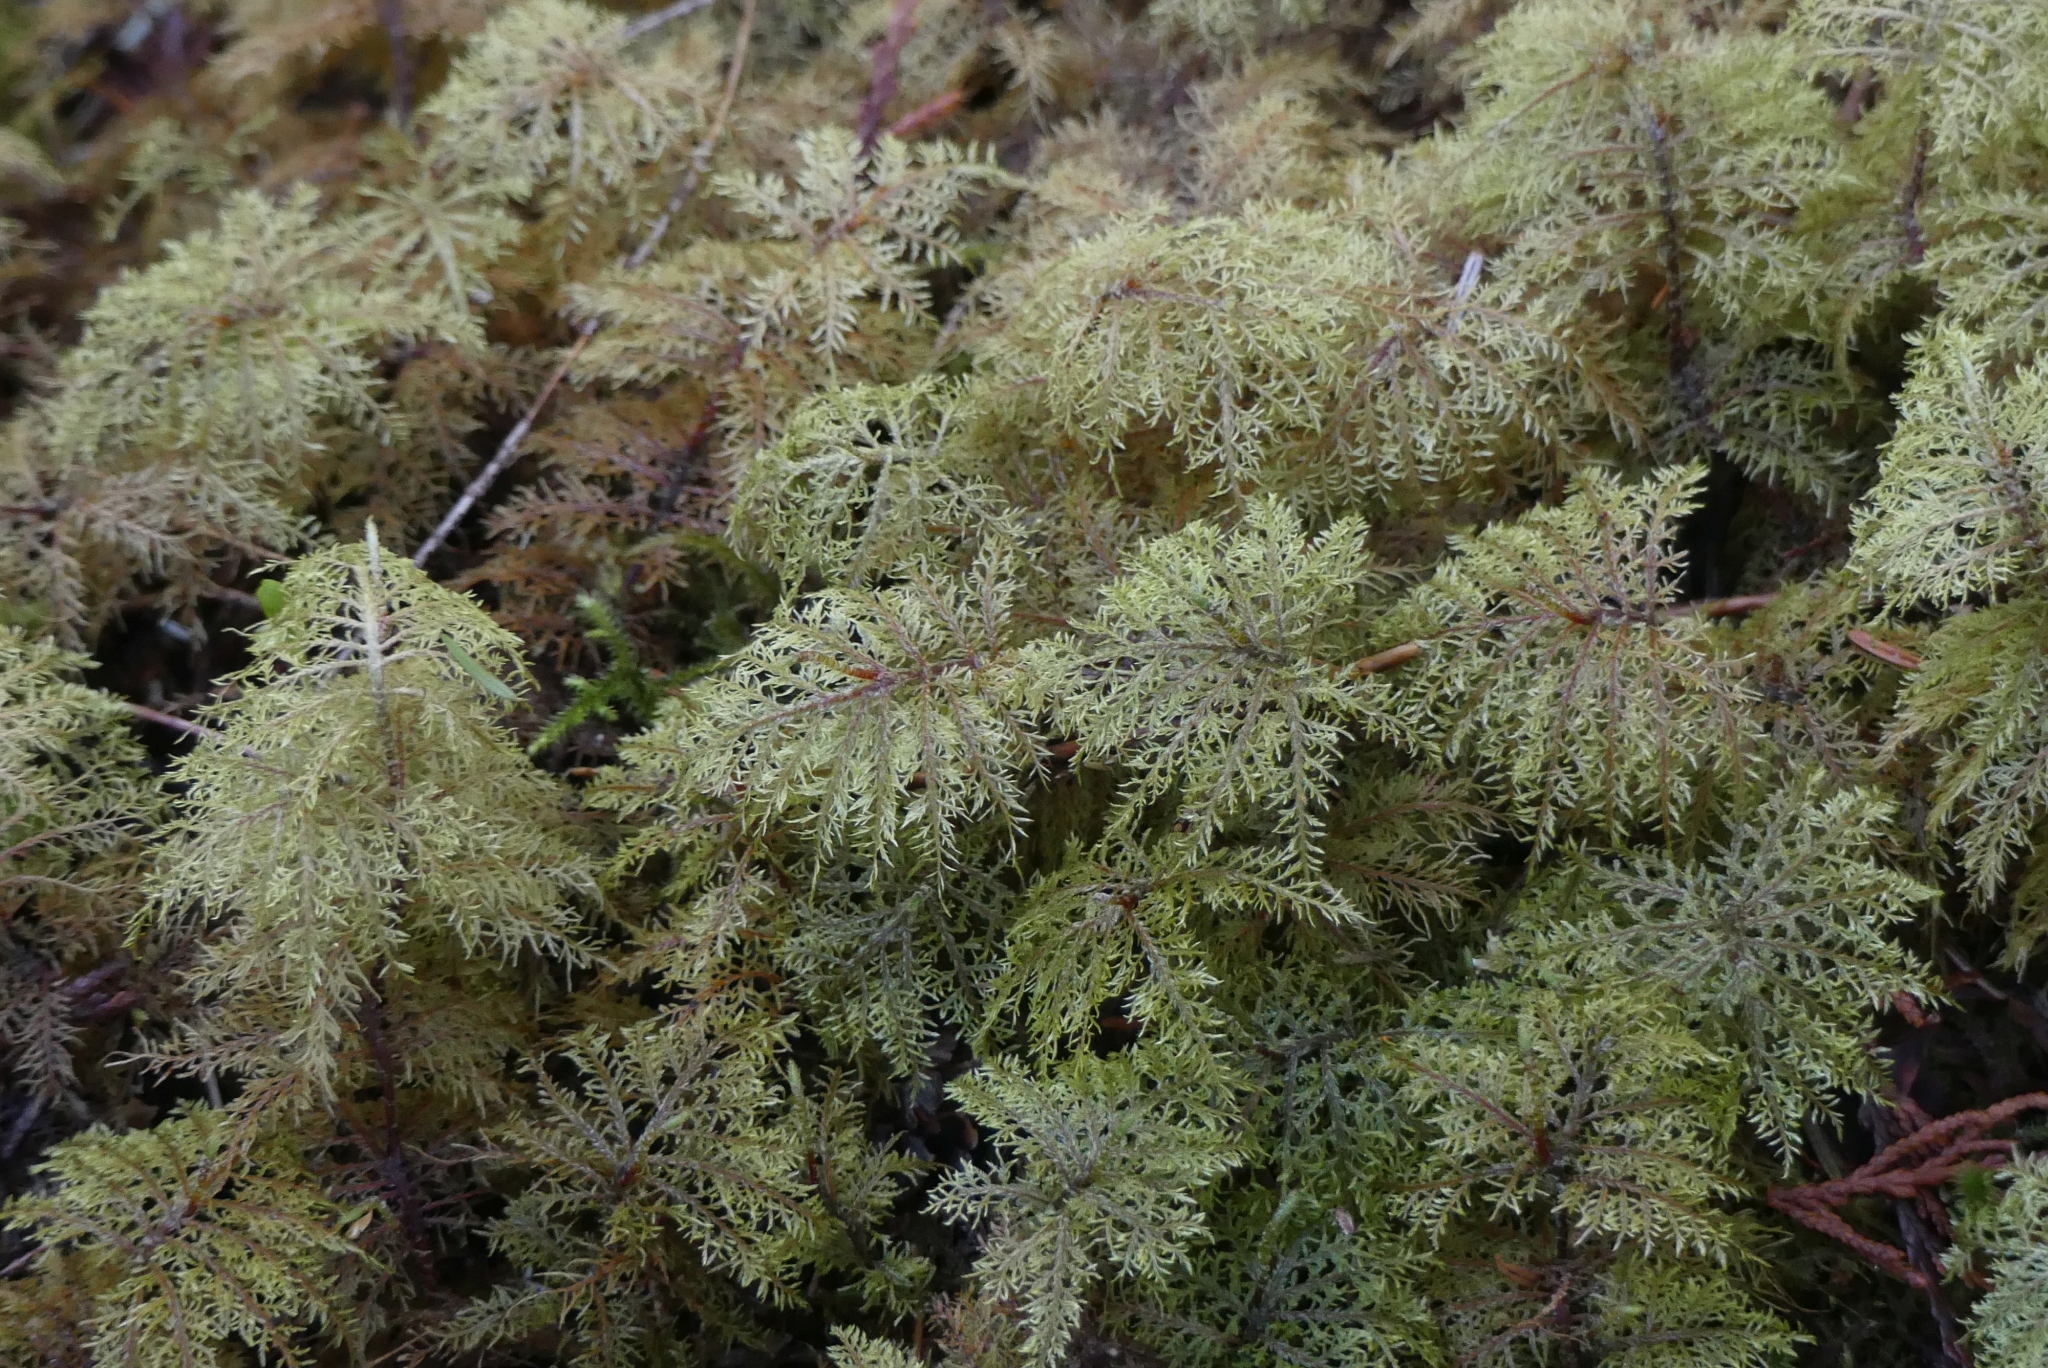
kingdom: Plantae
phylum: Bryophyta
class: Bryopsida
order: Hypnales
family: Hylocomiaceae
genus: Hylocomium
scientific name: Hylocomium splendens
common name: Stairstep moss
